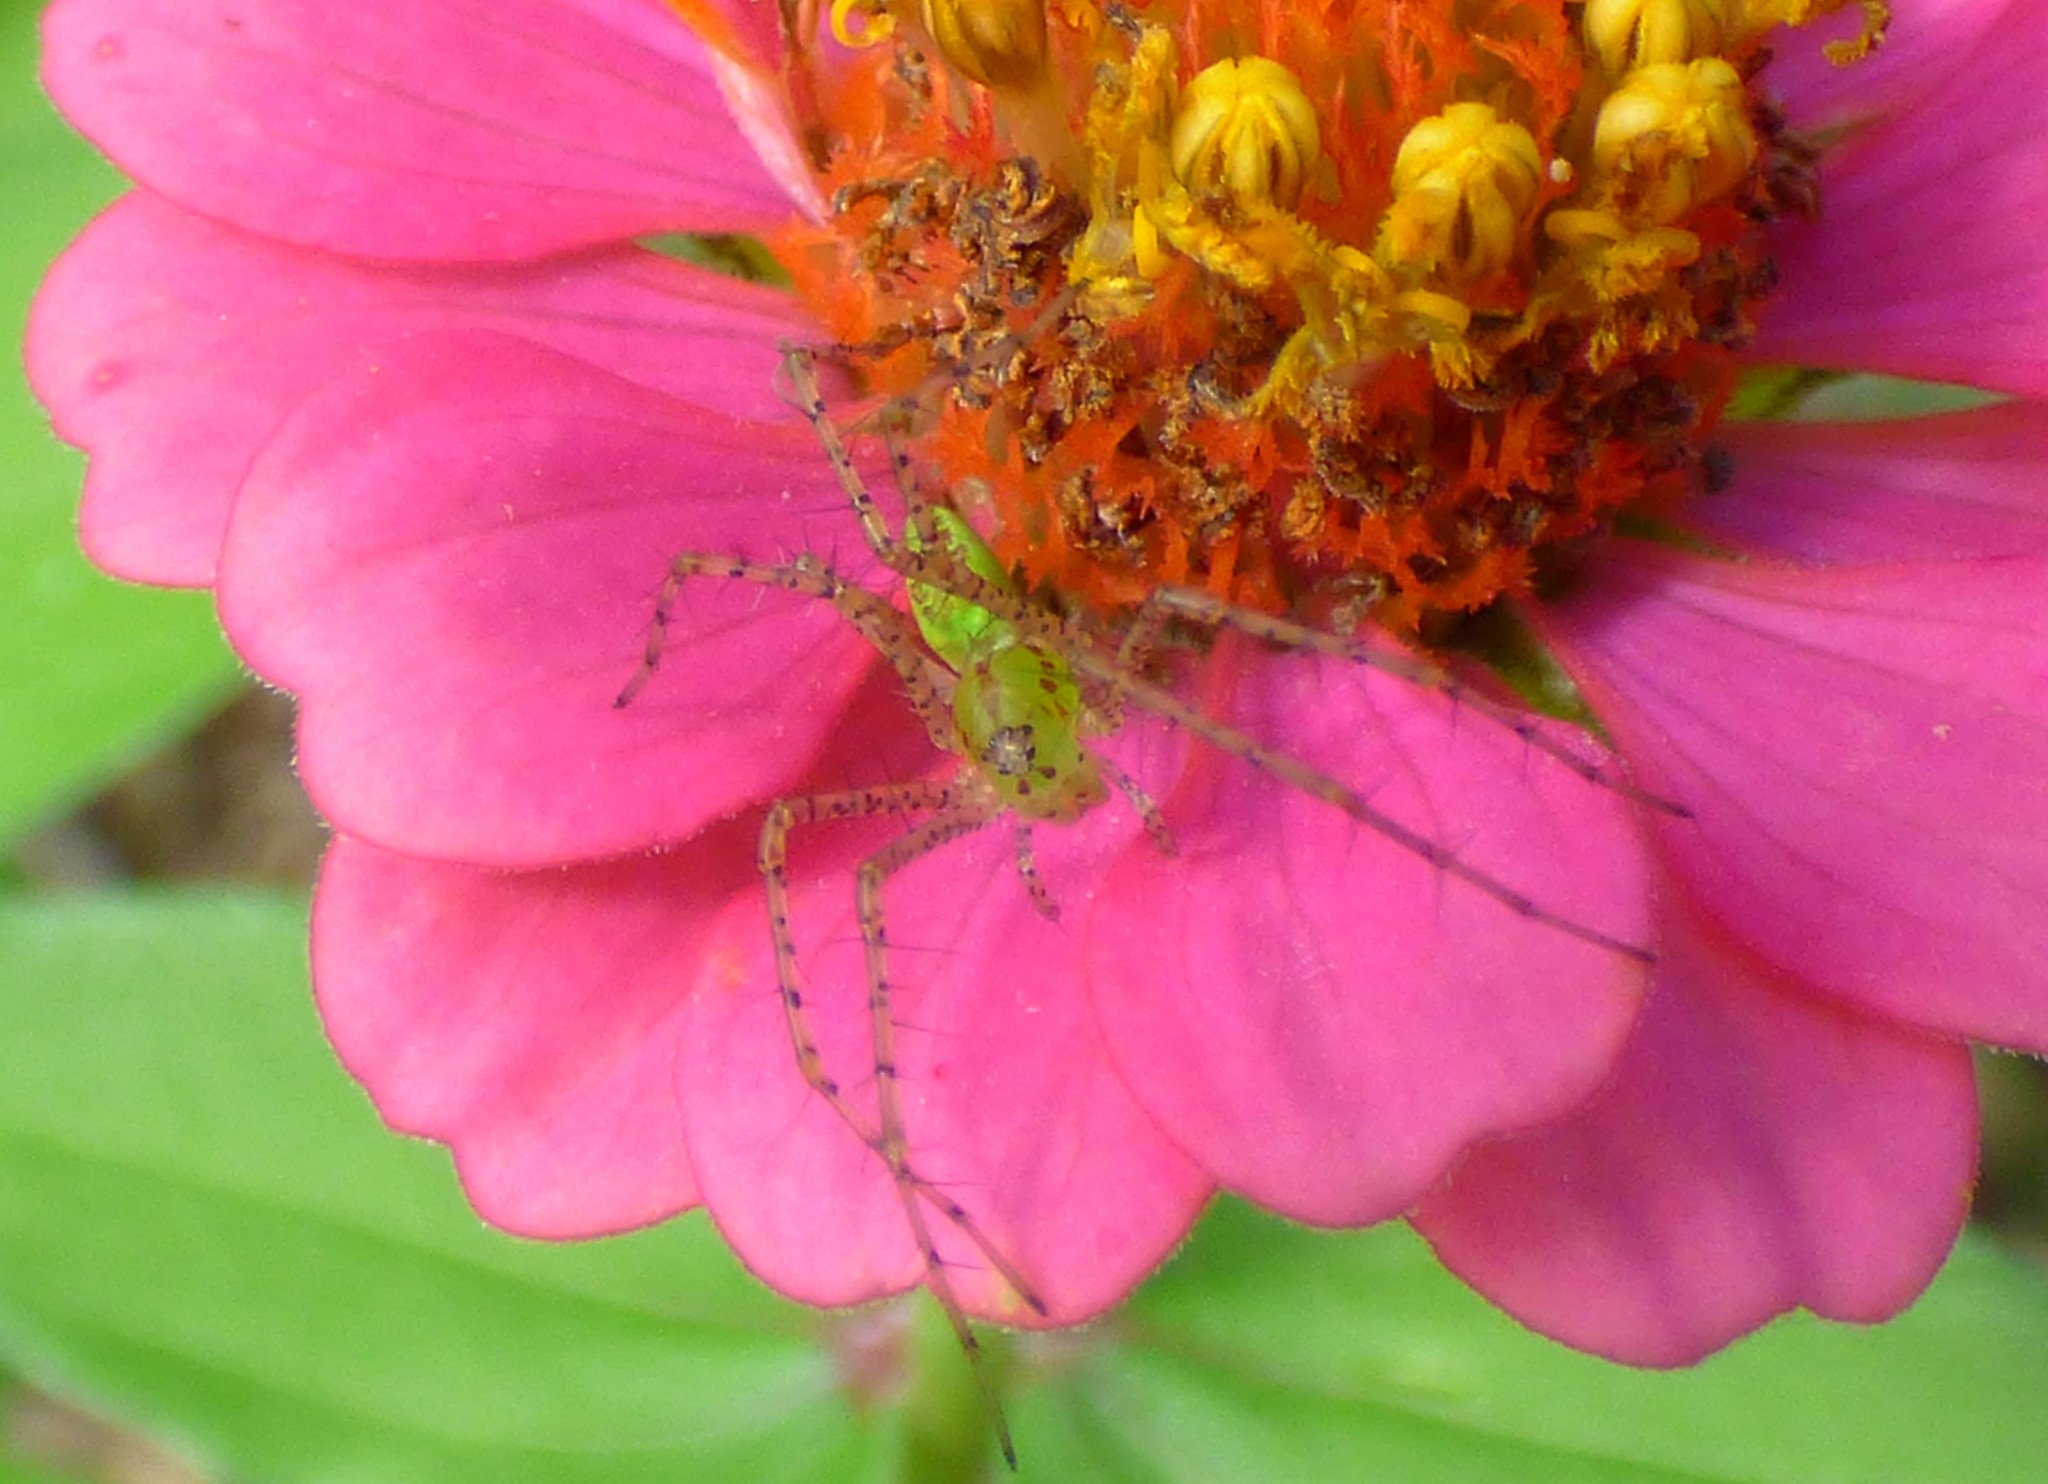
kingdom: Animalia
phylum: Arthropoda
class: Arachnida
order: Araneae
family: Oxyopidae
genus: Peucetia
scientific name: Peucetia viridans
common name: Lynx spiders
